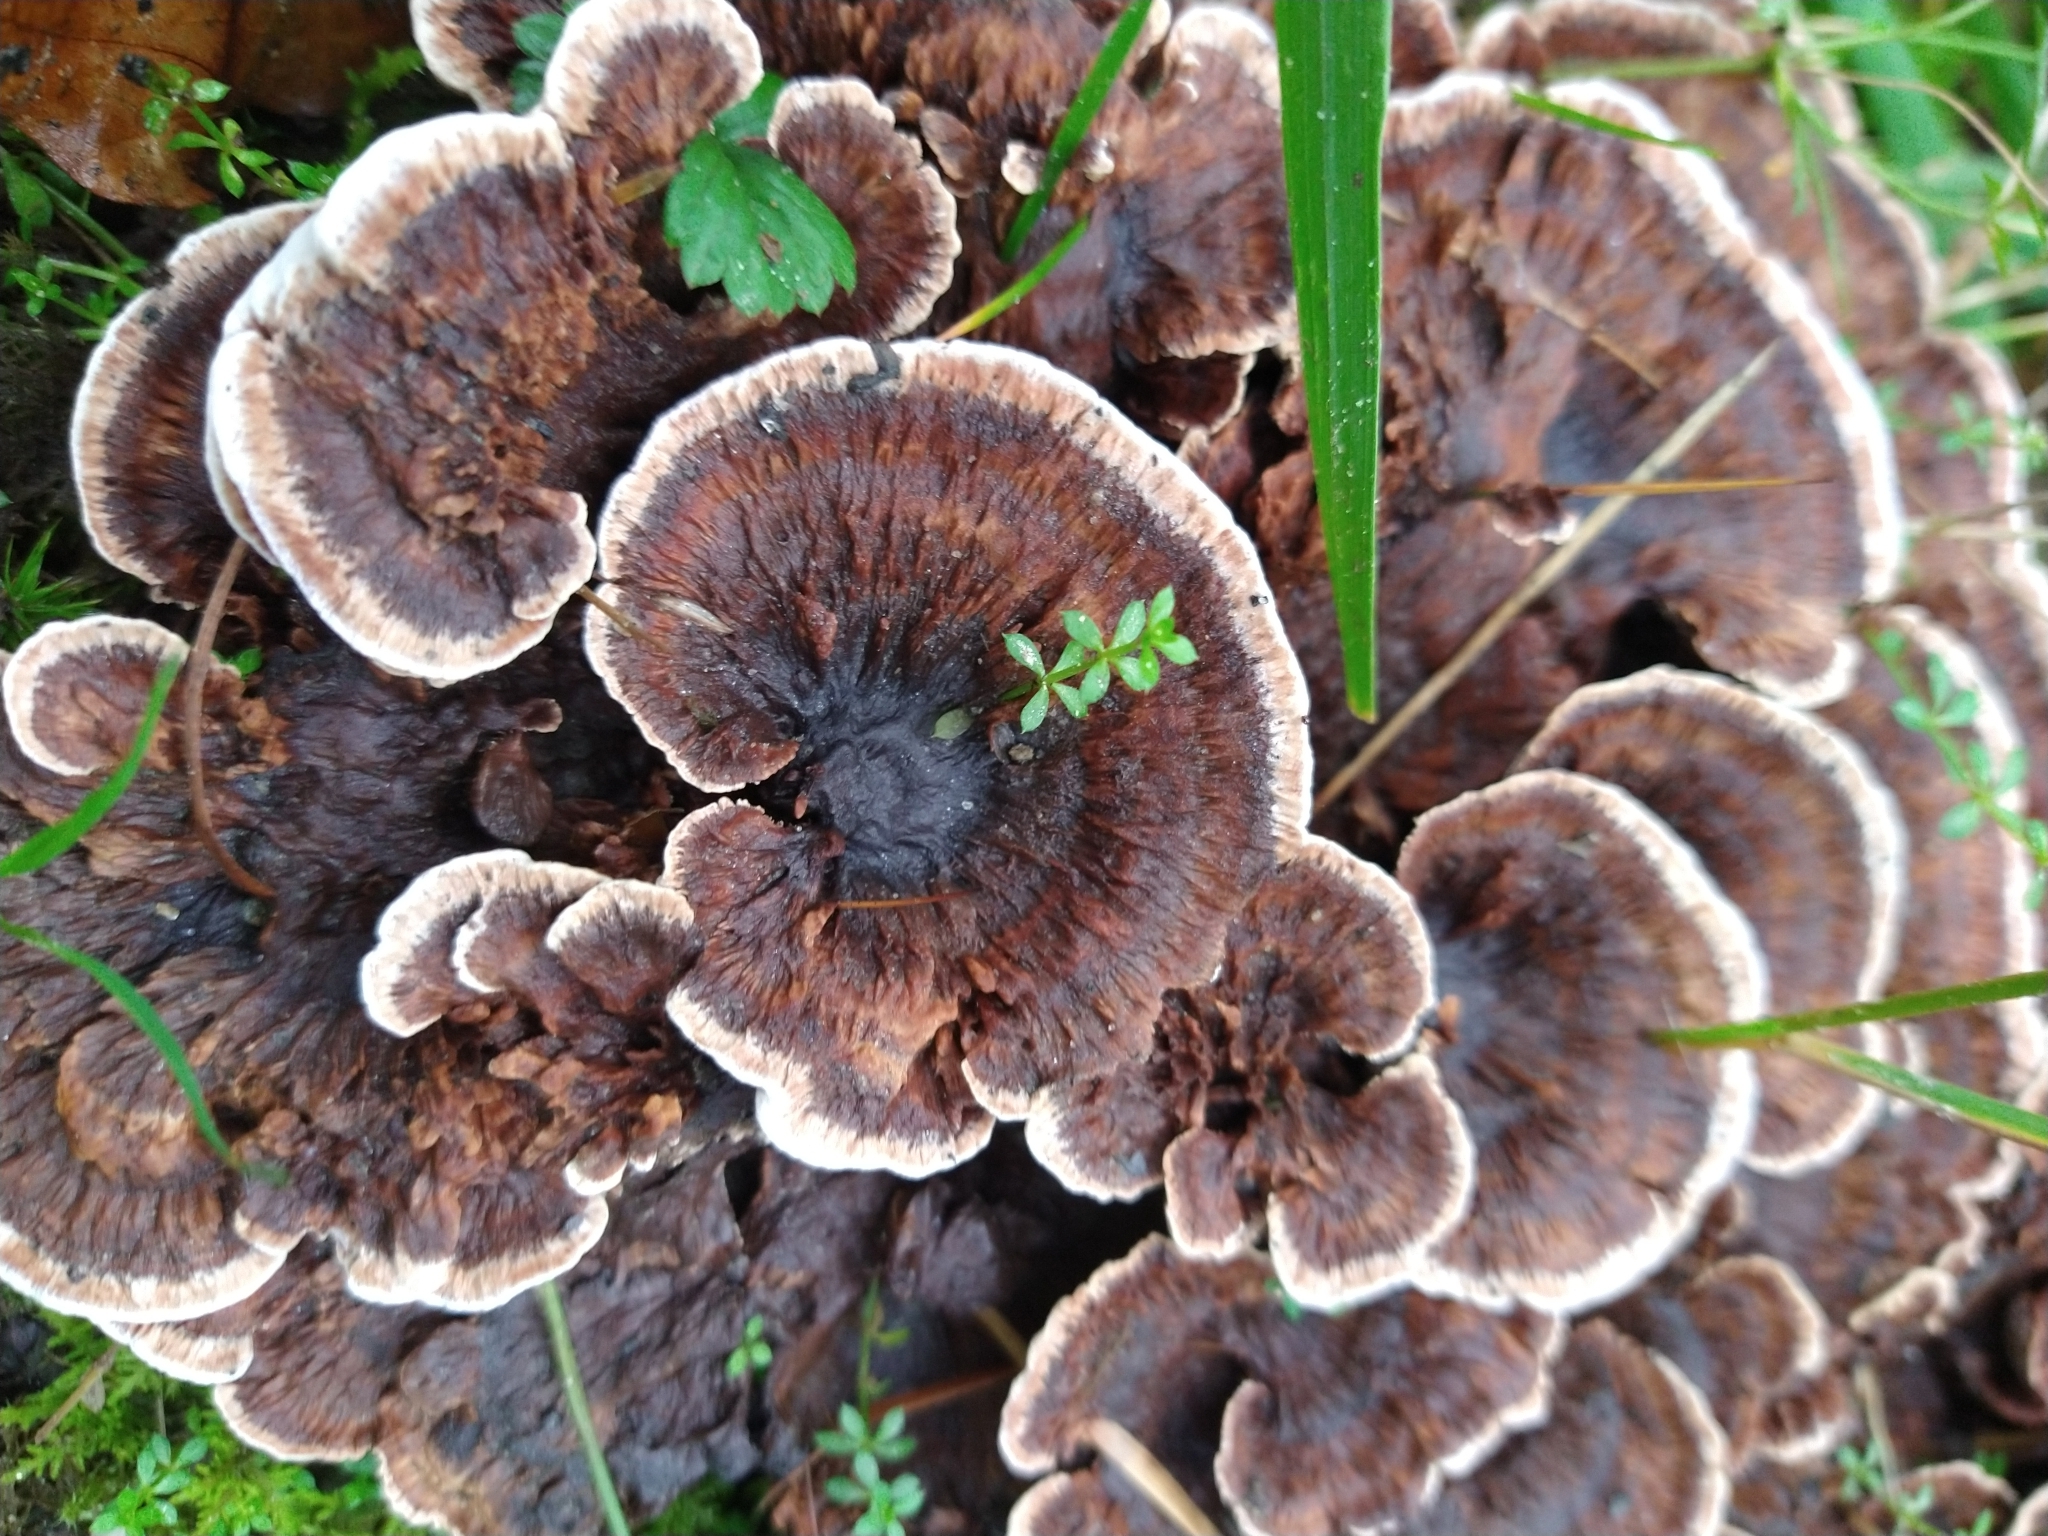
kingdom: Fungi
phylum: Basidiomycota
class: Agaricomycetes
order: Thelephorales
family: Bankeraceae
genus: Hydnellum
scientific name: Hydnellum concrescens
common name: Zoned tooth
